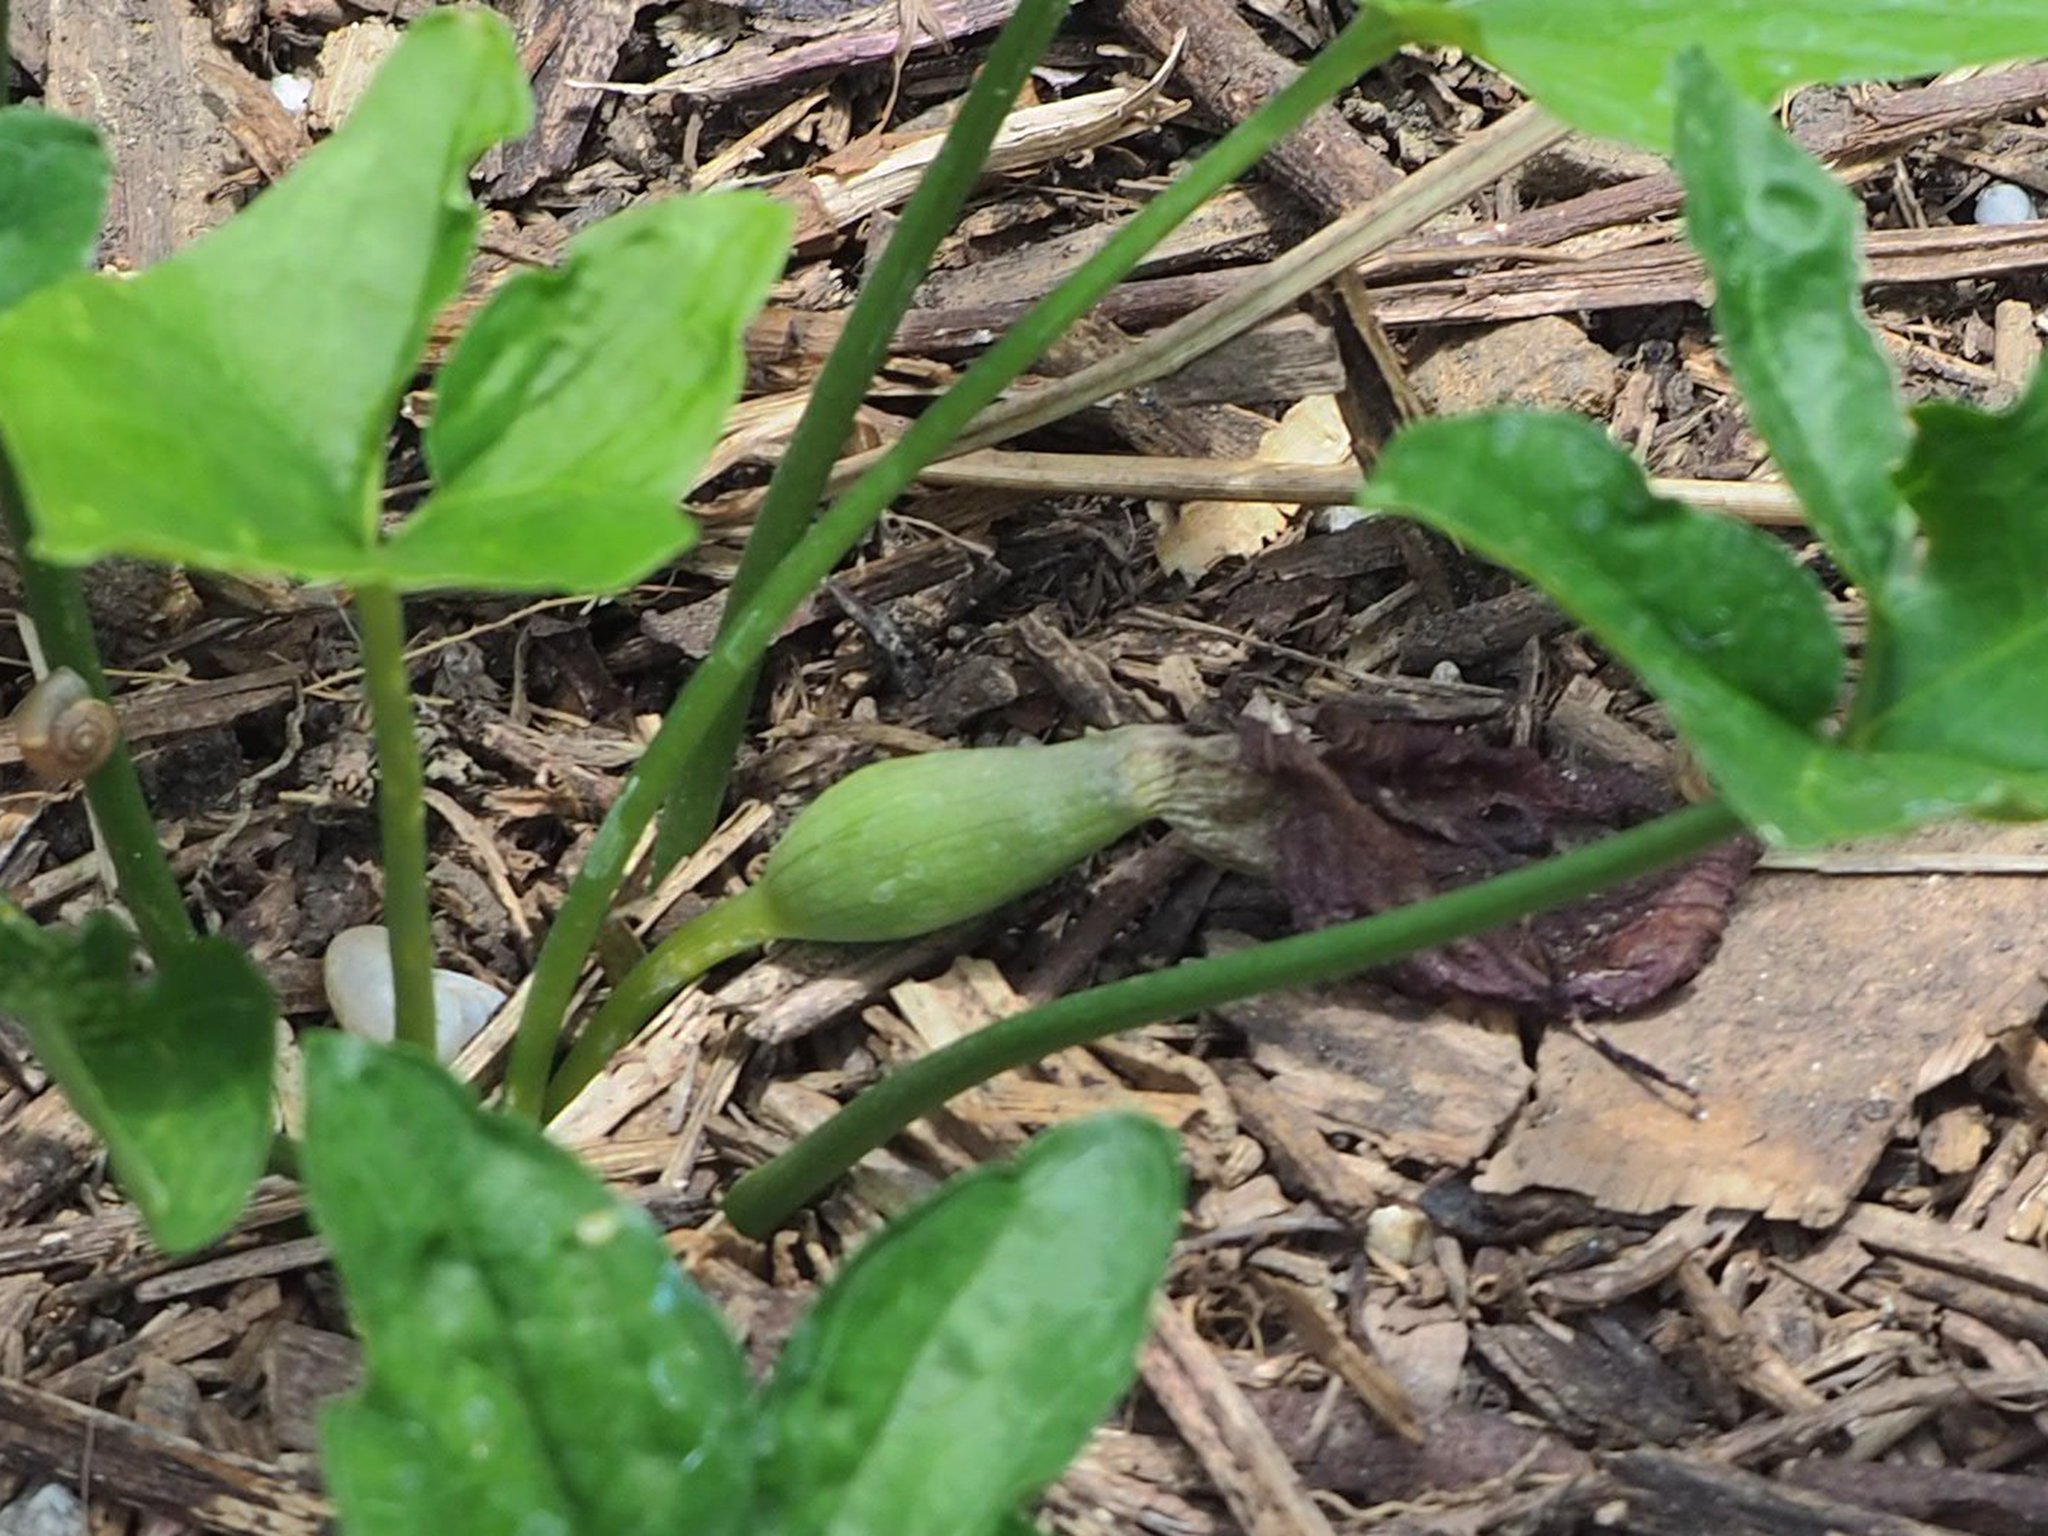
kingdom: Plantae
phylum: Tracheophyta
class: Liliopsida
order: Alismatales
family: Araceae
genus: Typhonium
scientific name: Typhonium blumei
